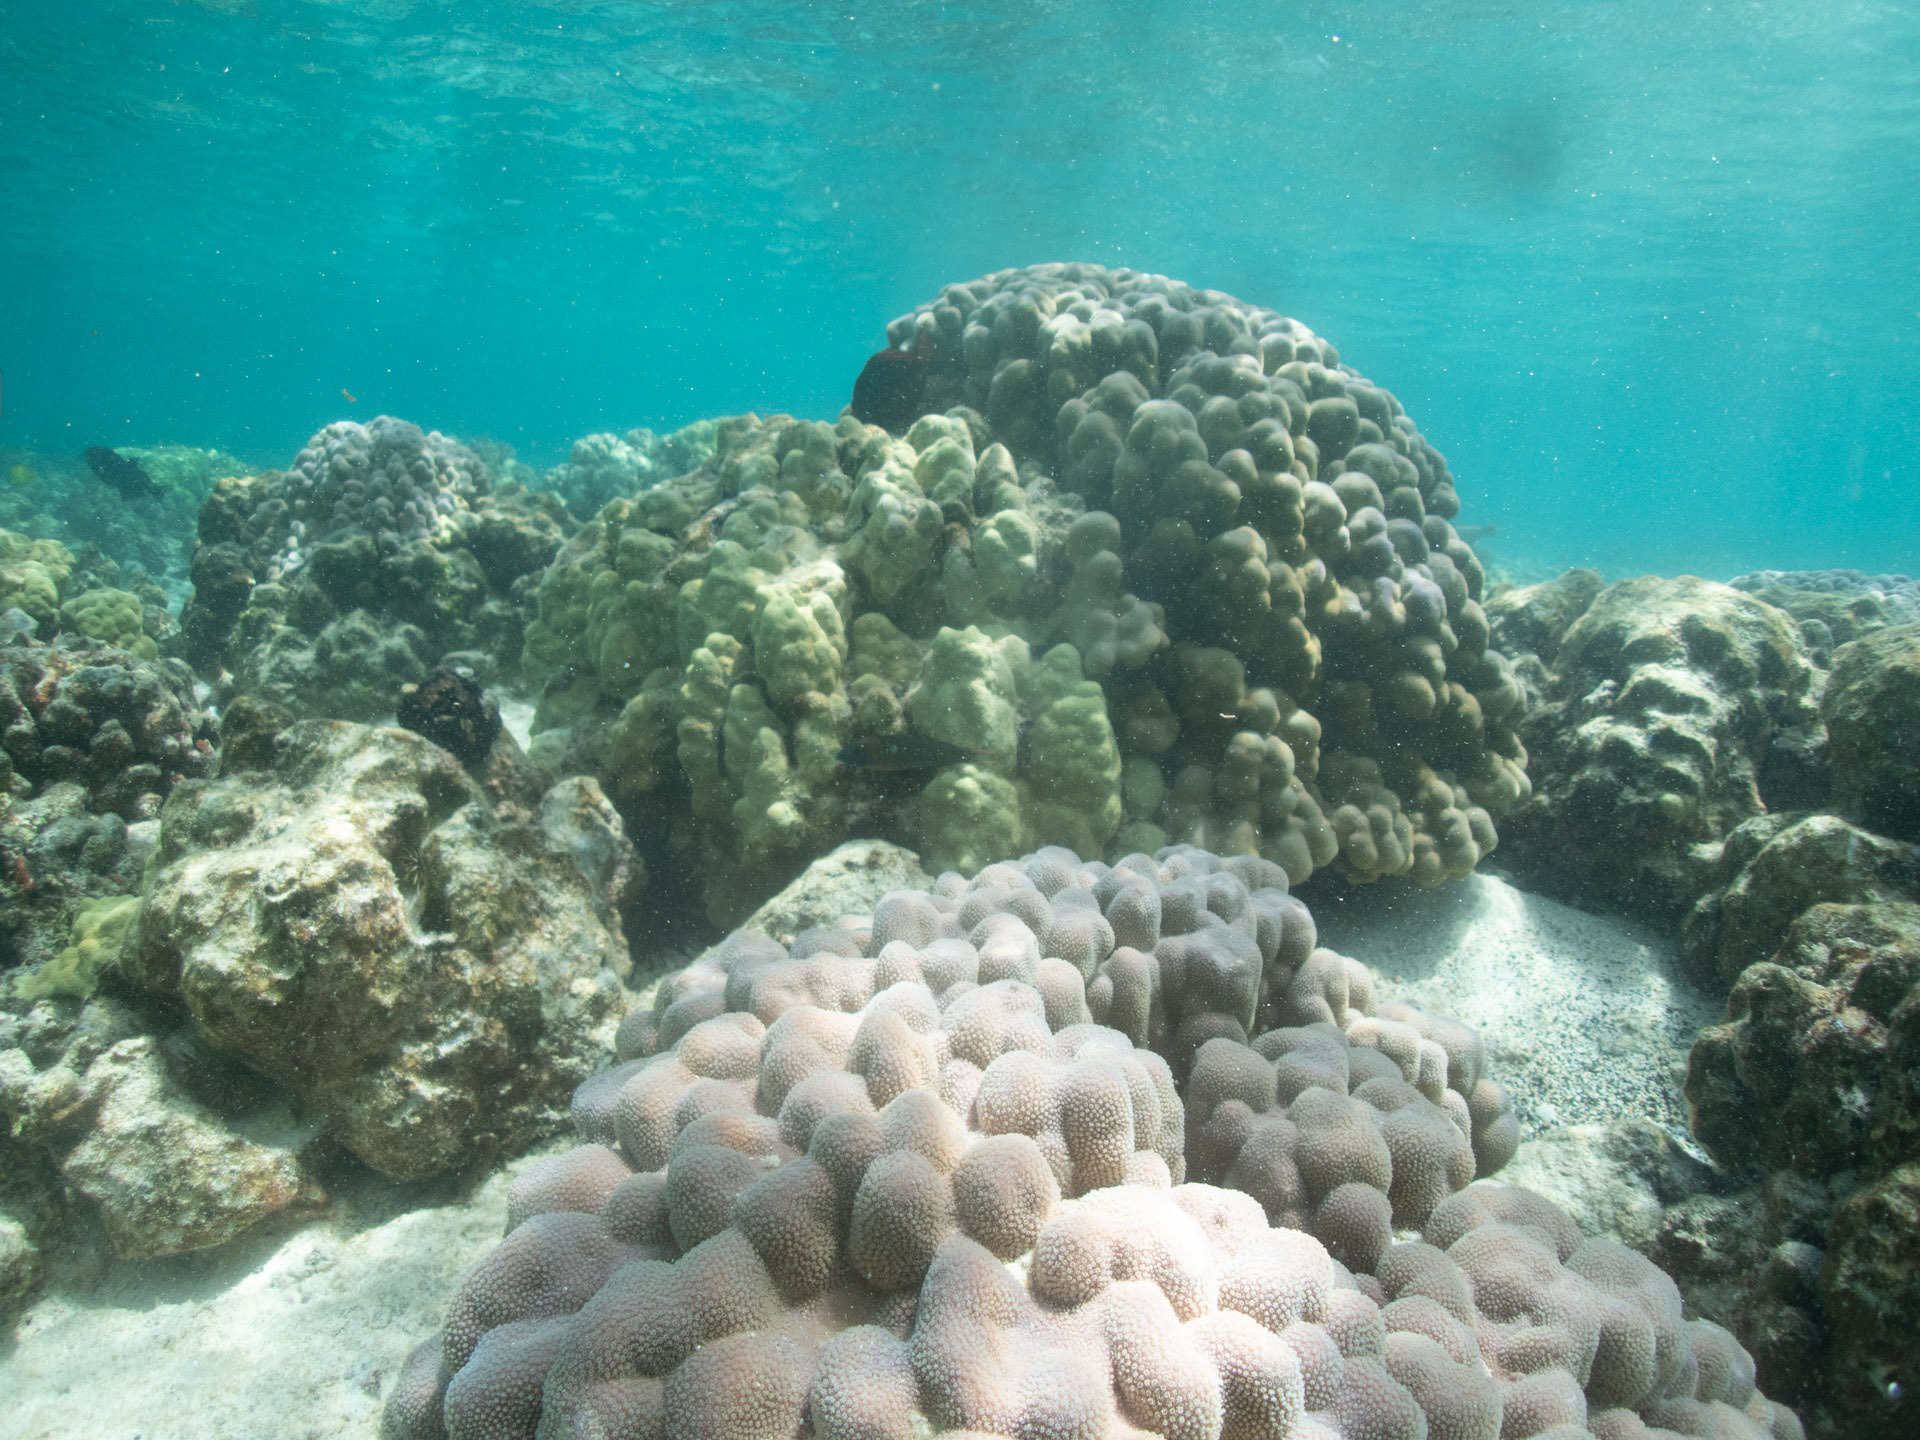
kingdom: Animalia
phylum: Cnidaria
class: Anthozoa
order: Scleractinia
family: Poritidae
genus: Porites
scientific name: Porites evermanni
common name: Hump coral
